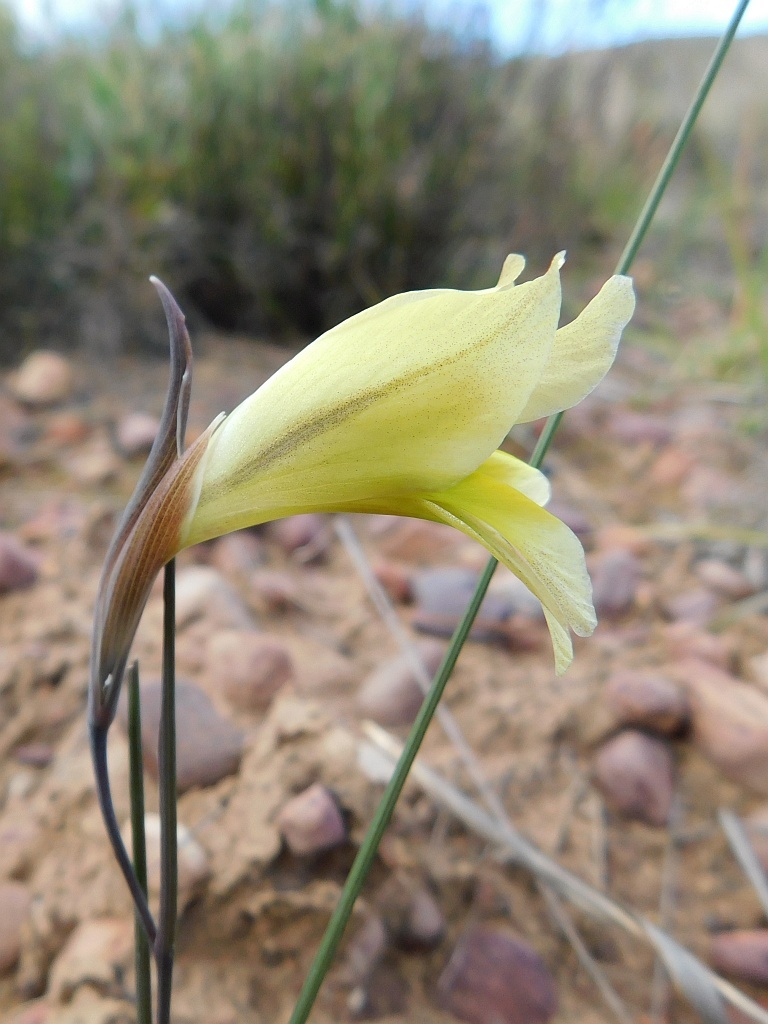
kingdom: Plantae
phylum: Tracheophyta
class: Liliopsida
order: Asparagales
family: Iridaceae
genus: Gladiolus
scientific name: Gladiolus carinatus
